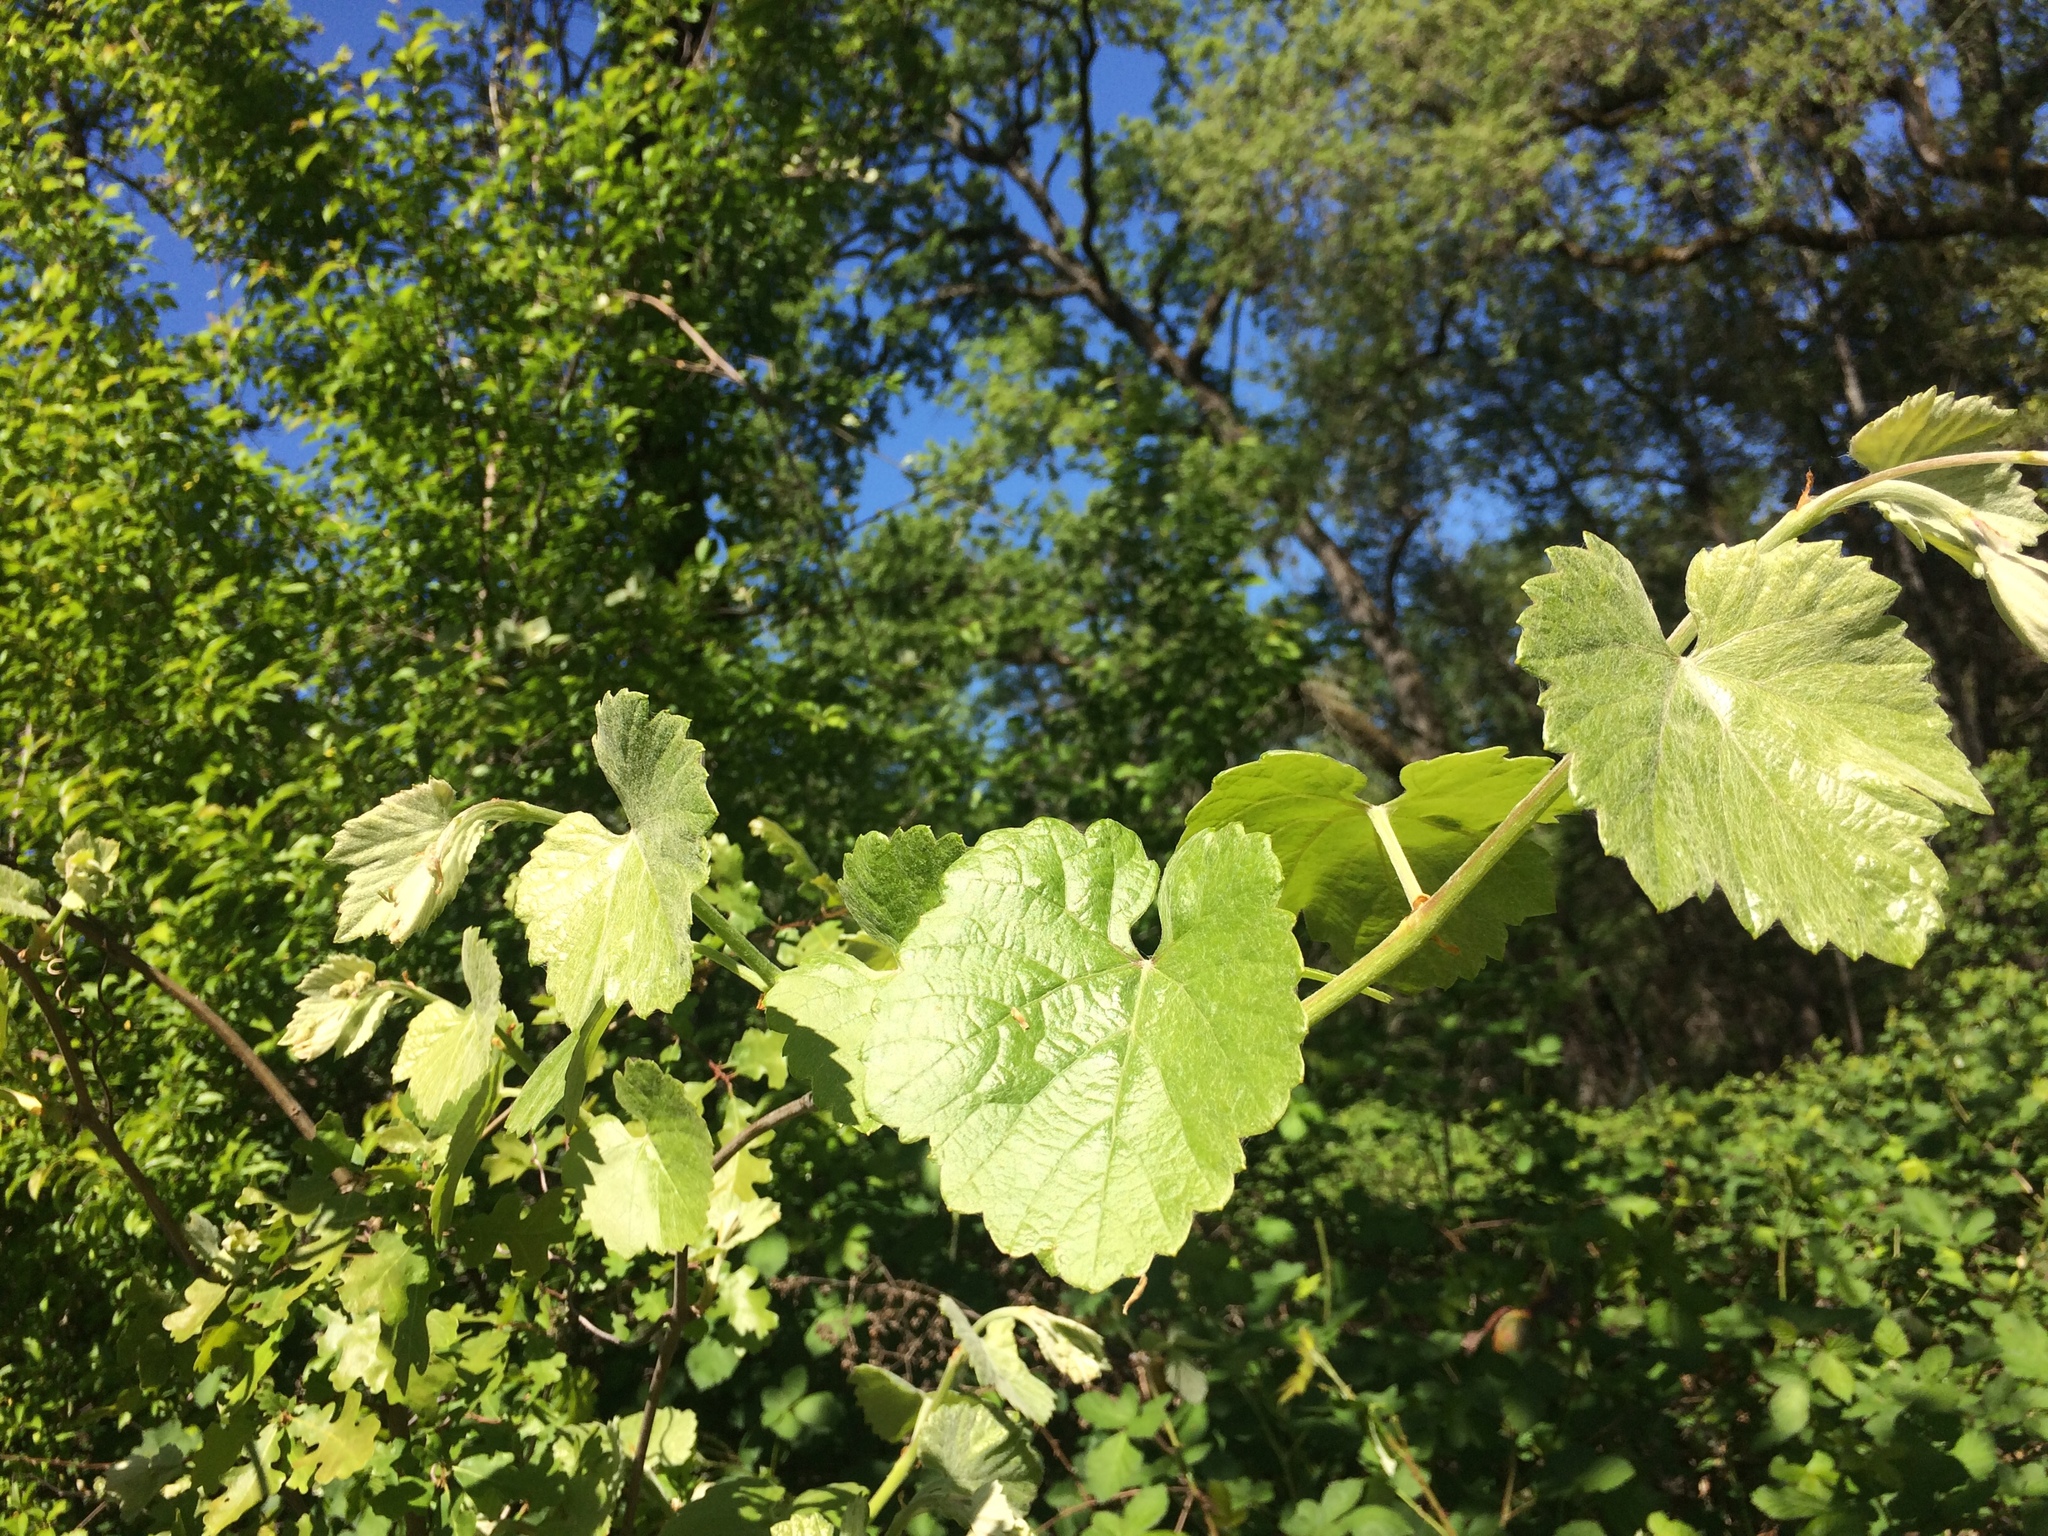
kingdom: Plantae
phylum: Tracheophyta
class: Magnoliopsida
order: Vitales
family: Vitaceae
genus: Vitis
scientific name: Vitis californica
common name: California wild grape
